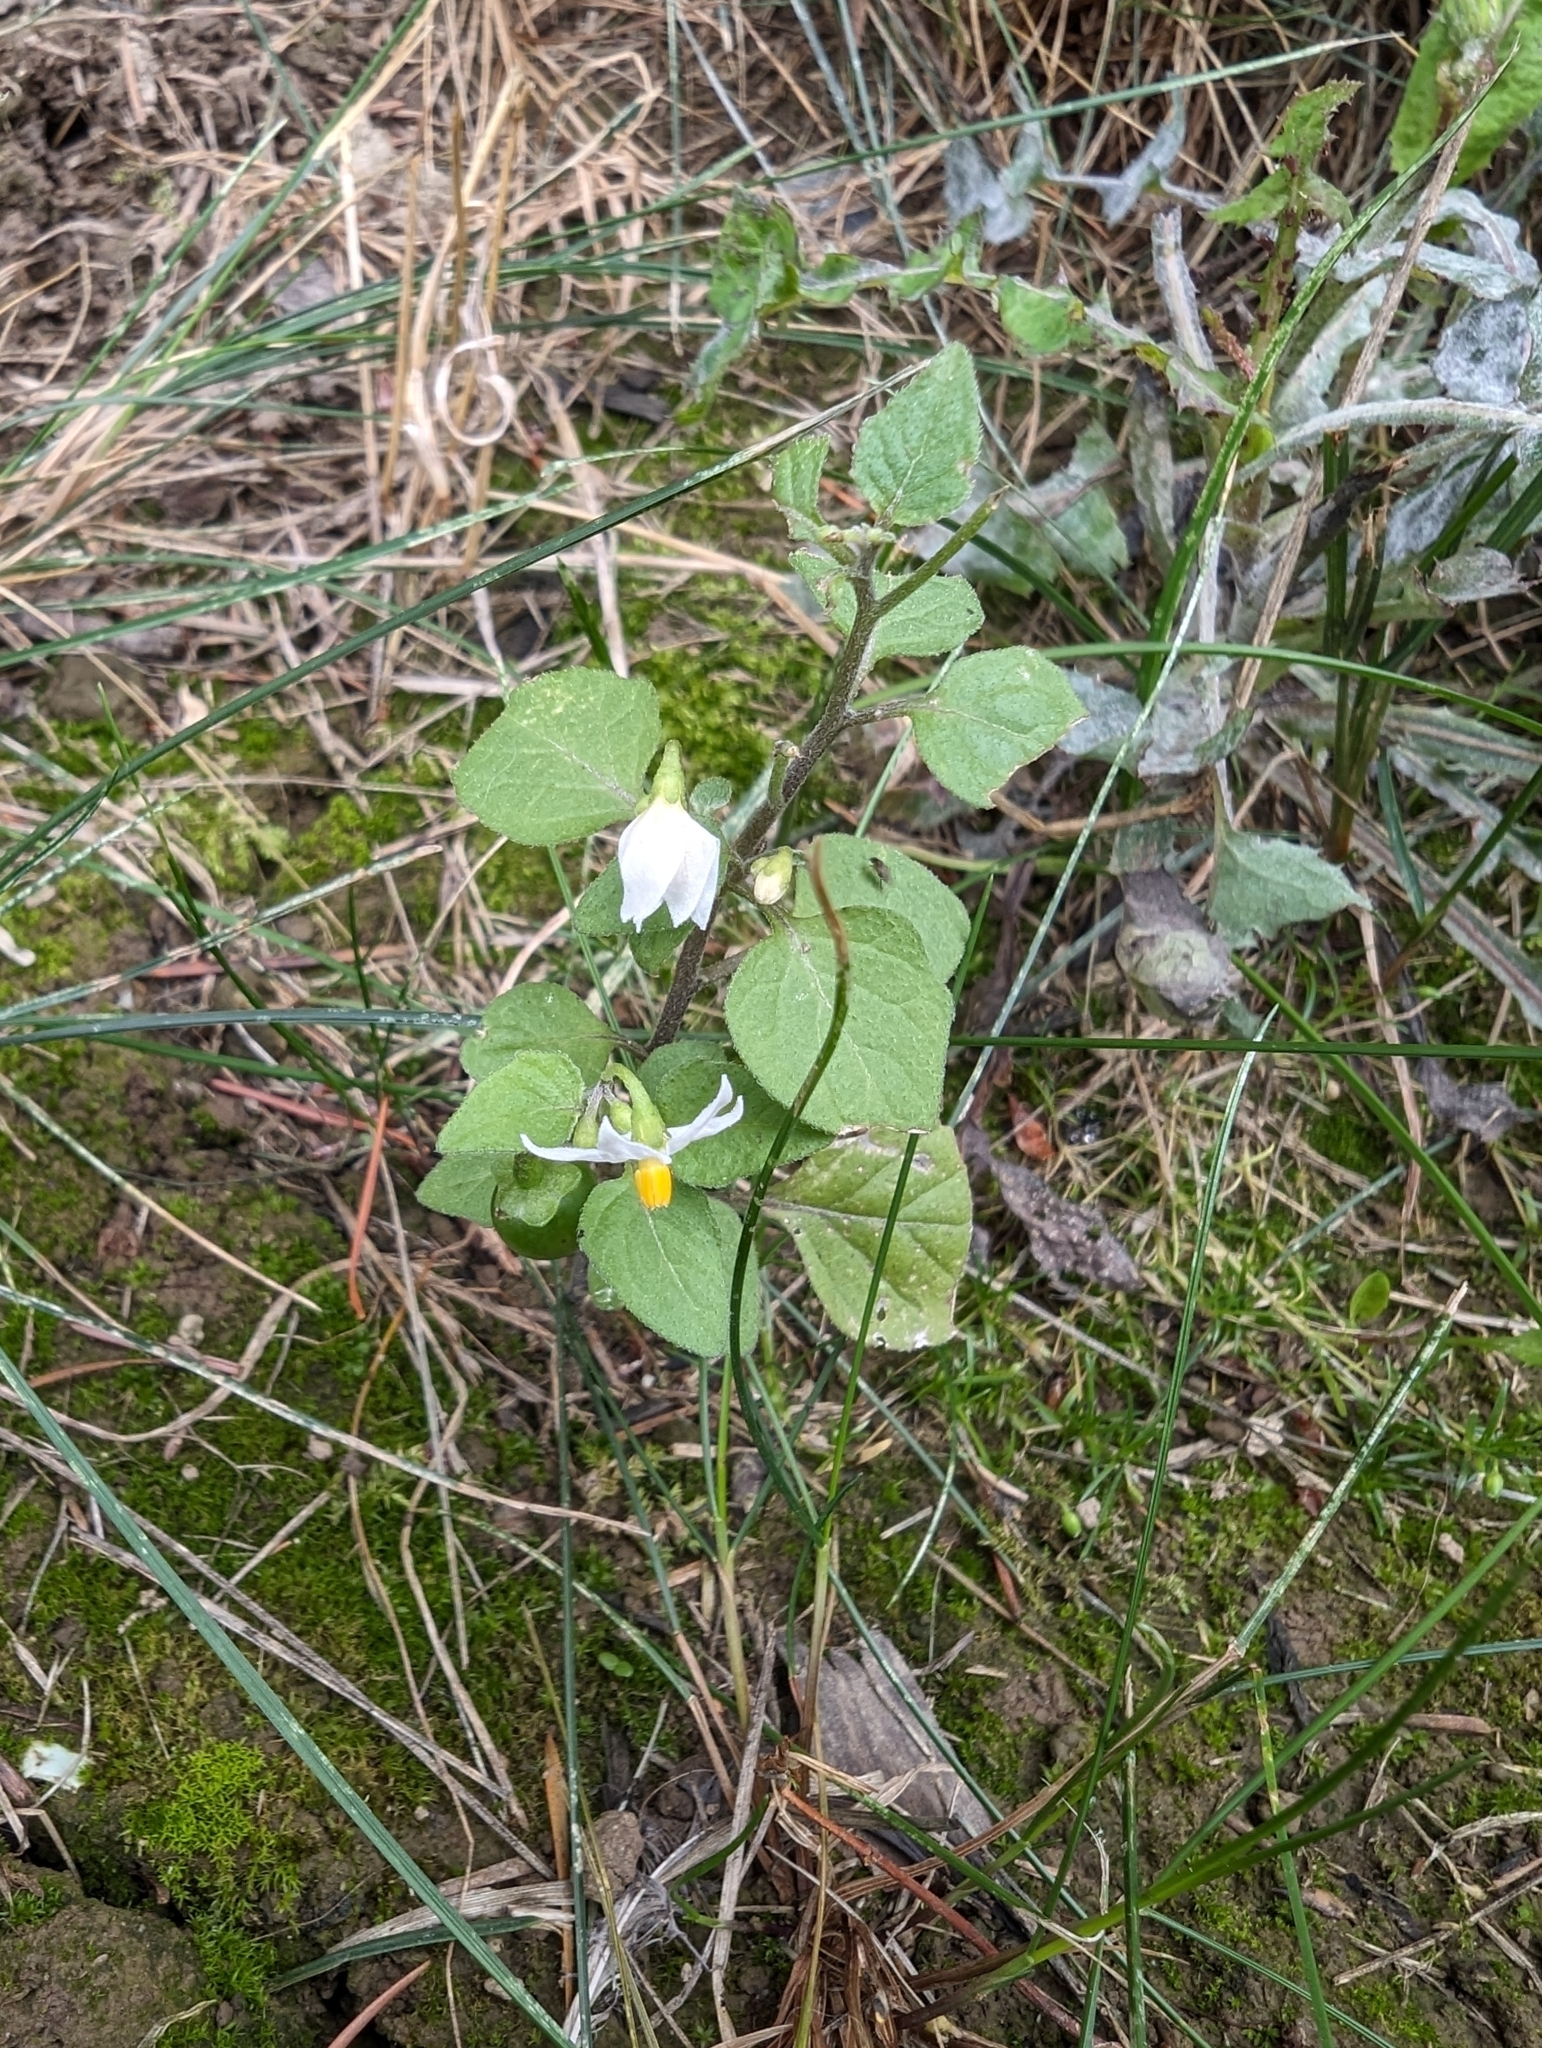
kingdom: Plantae
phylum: Tracheophyta
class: Magnoliopsida
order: Solanales
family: Solanaceae
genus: Solanum
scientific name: Solanum nigrum
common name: Black nightshade
